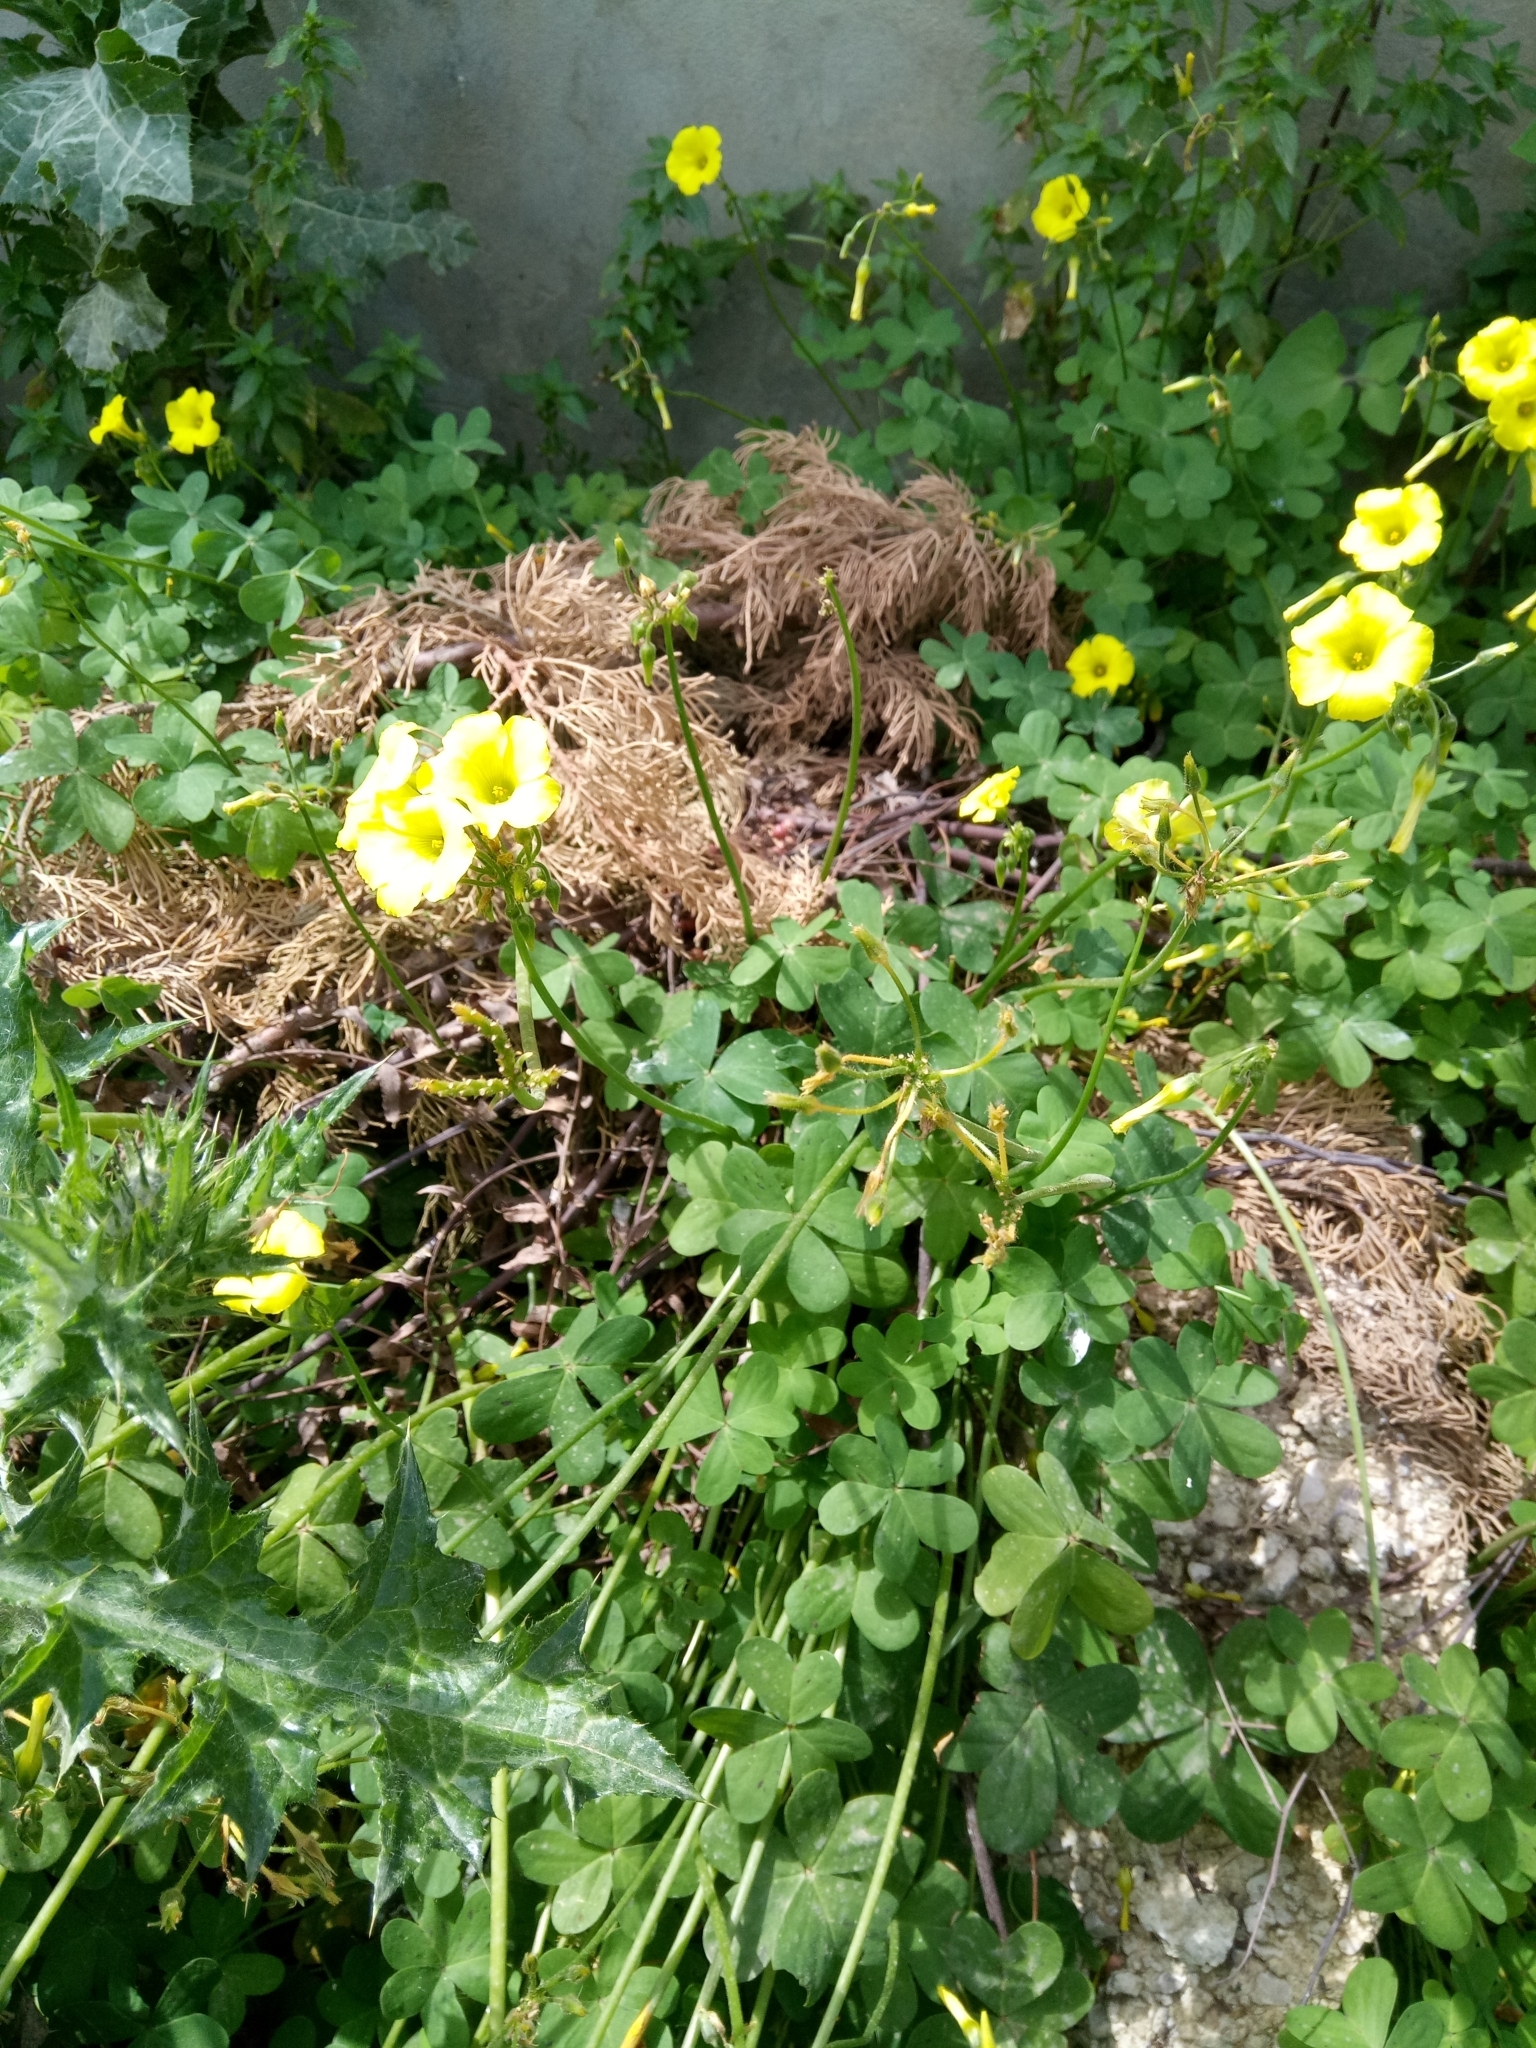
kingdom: Plantae
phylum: Tracheophyta
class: Magnoliopsida
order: Oxalidales
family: Oxalidaceae
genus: Oxalis
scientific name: Oxalis pes-caprae
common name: Bermuda-buttercup
